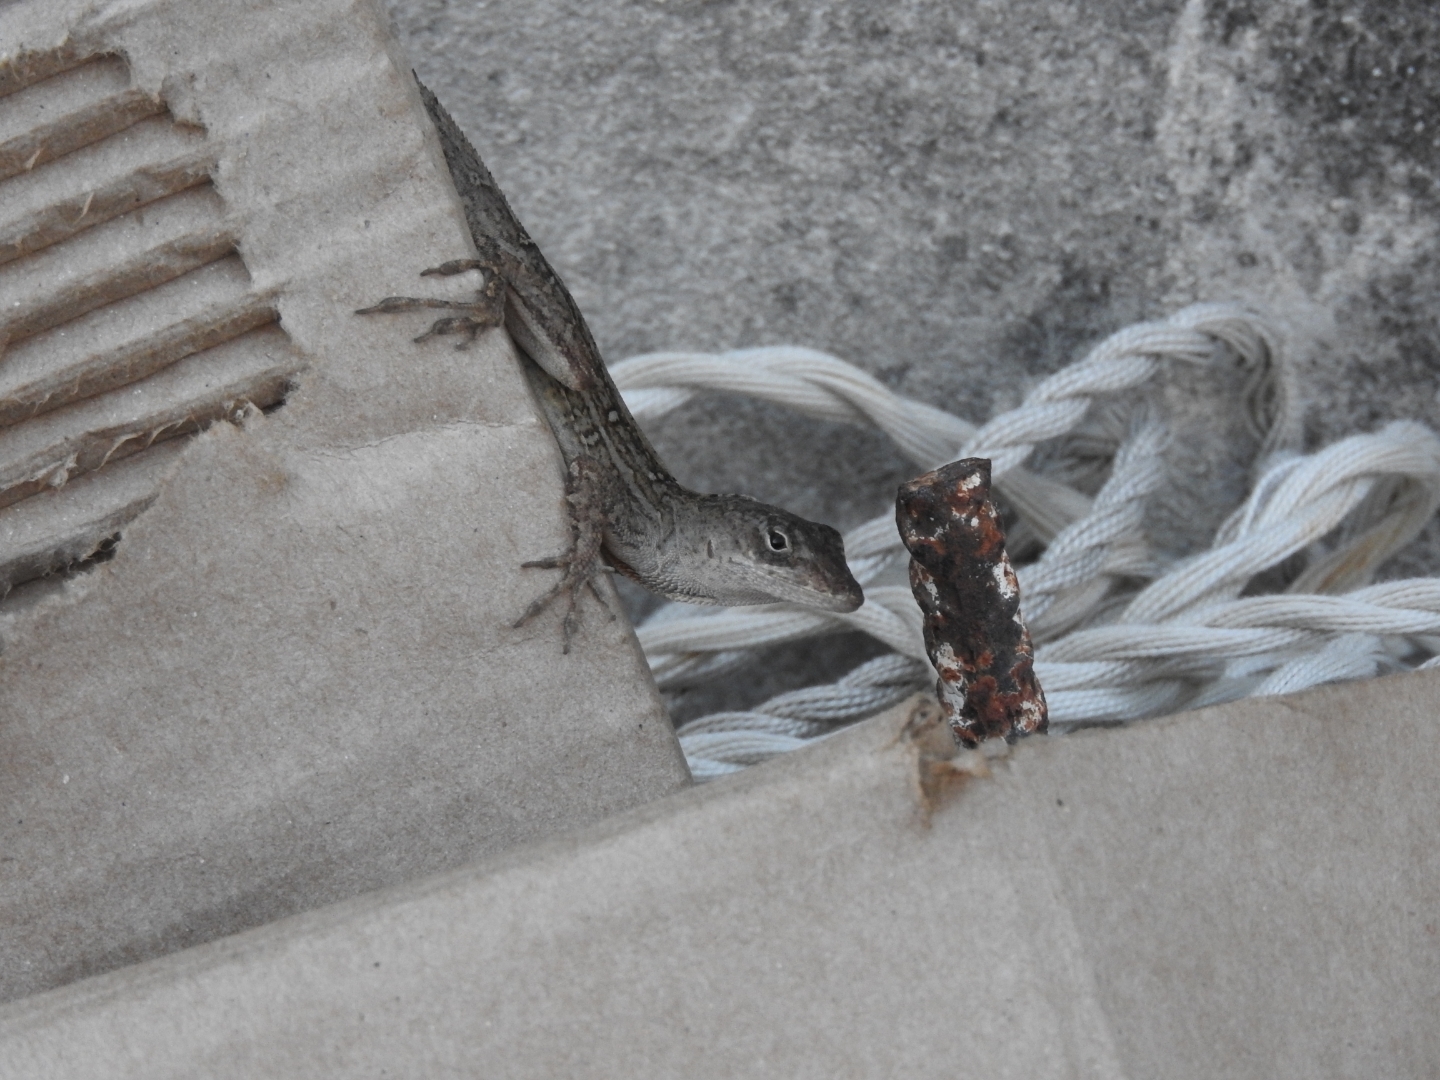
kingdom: Animalia
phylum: Chordata
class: Squamata
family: Dactyloidae
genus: Anolis
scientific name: Anolis sagrei
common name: Brown anole
